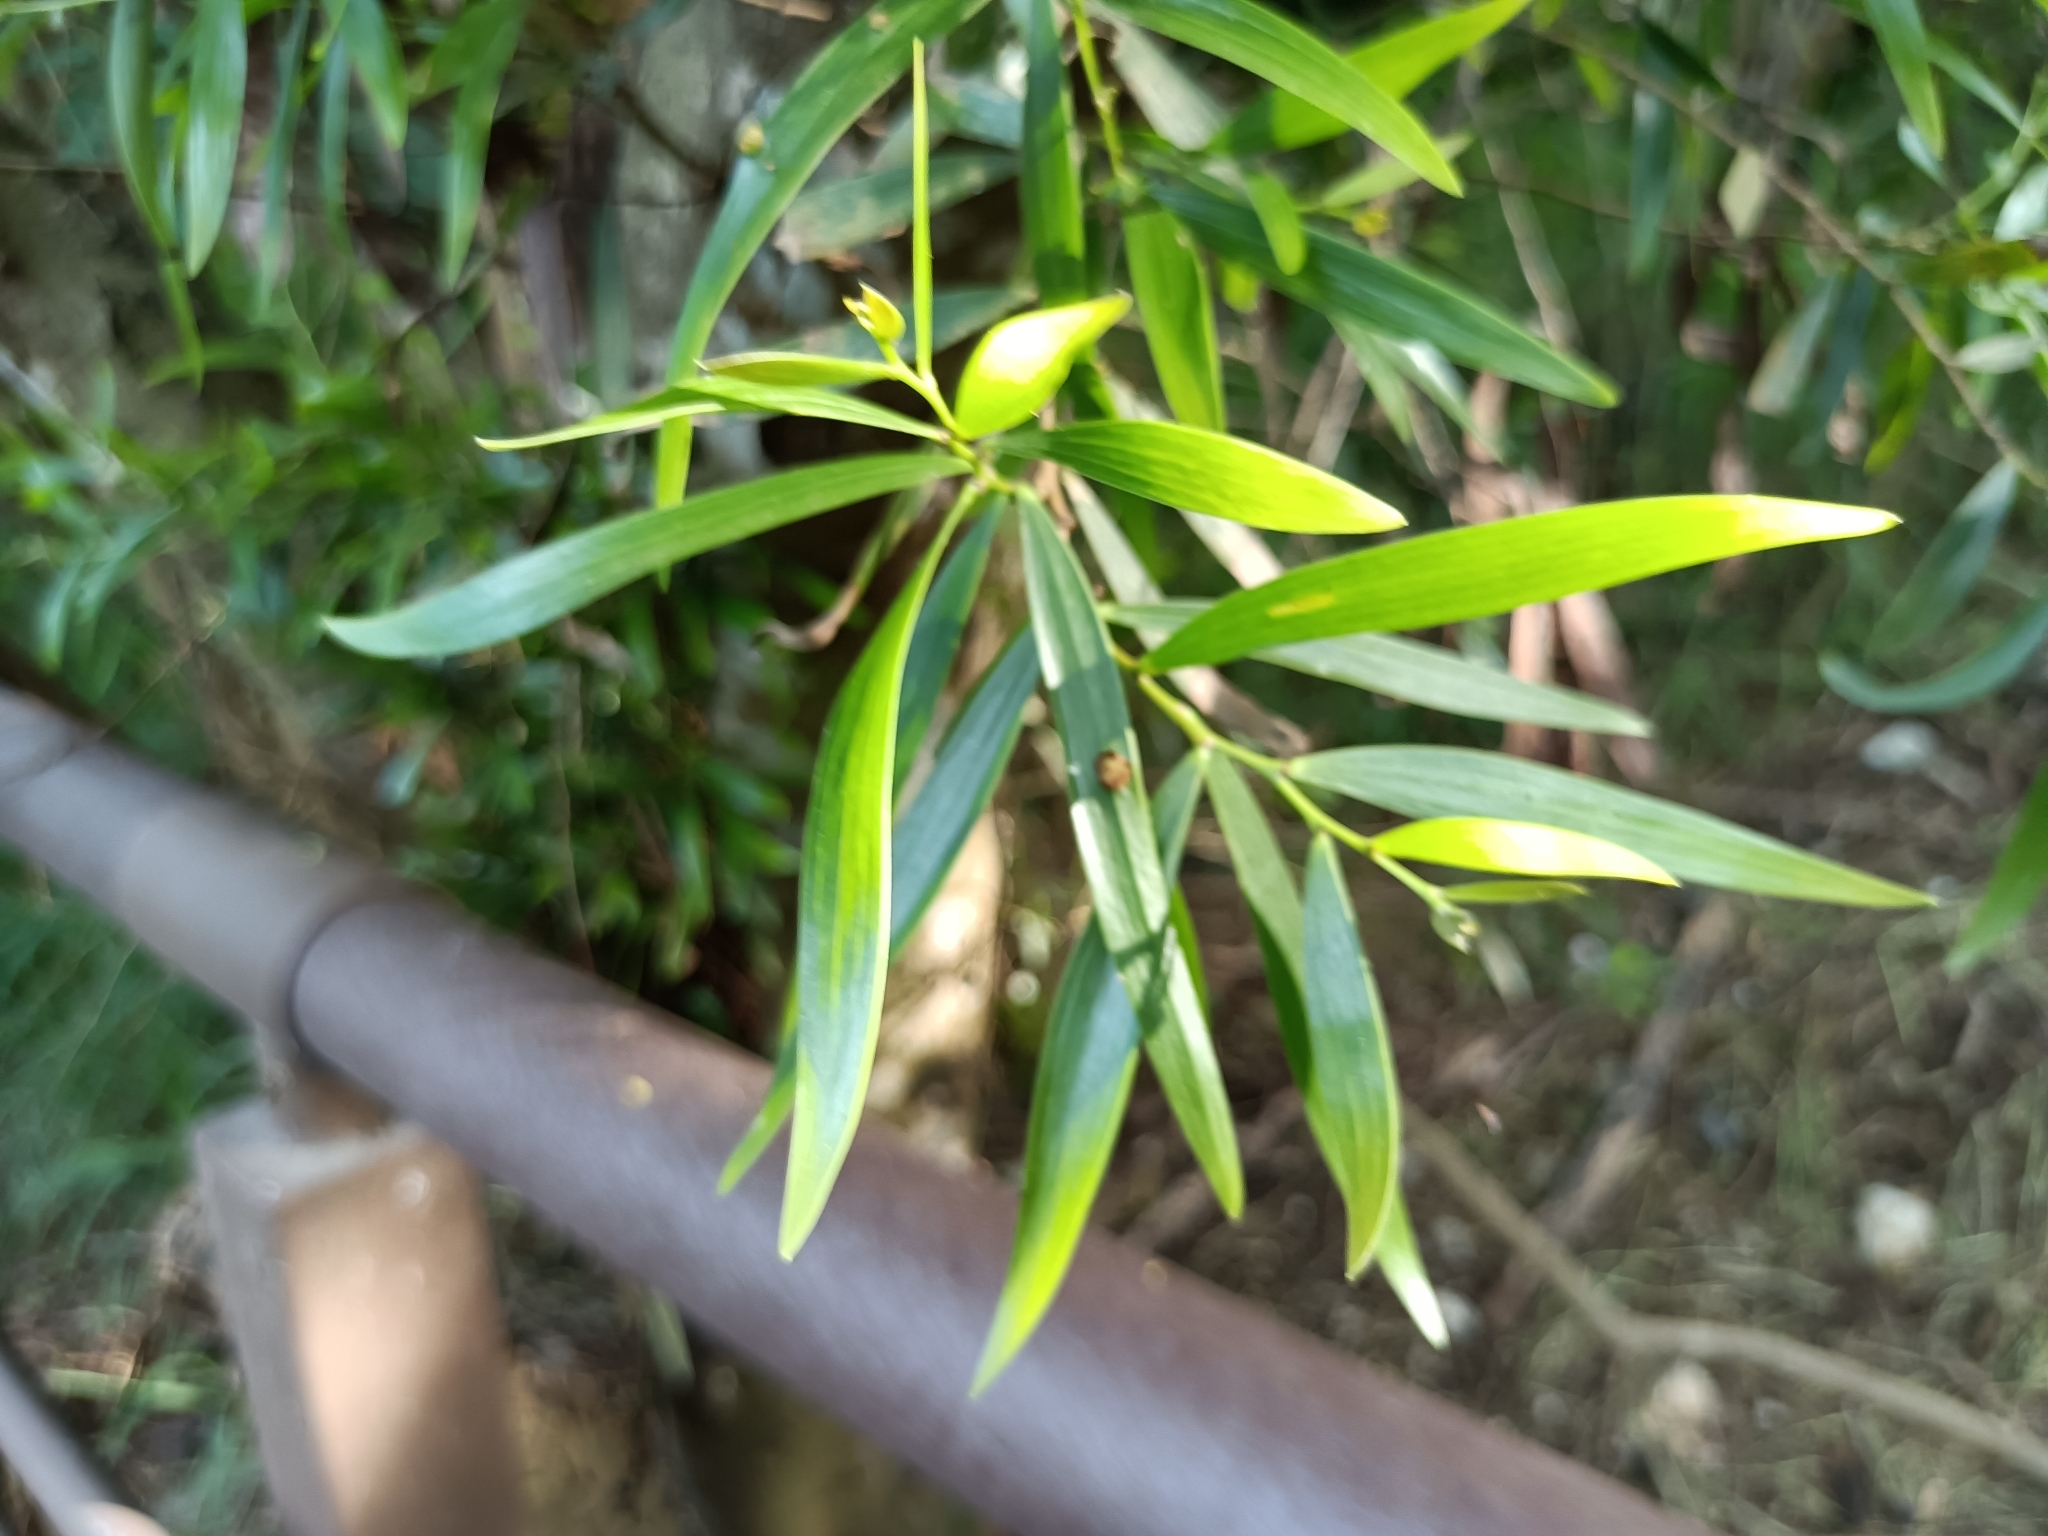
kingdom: Plantae
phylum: Tracheophyta
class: Magnoliopsida
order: Fabales
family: Fabaceae
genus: Acacia
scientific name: Acacia confusa
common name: Formosan koa
